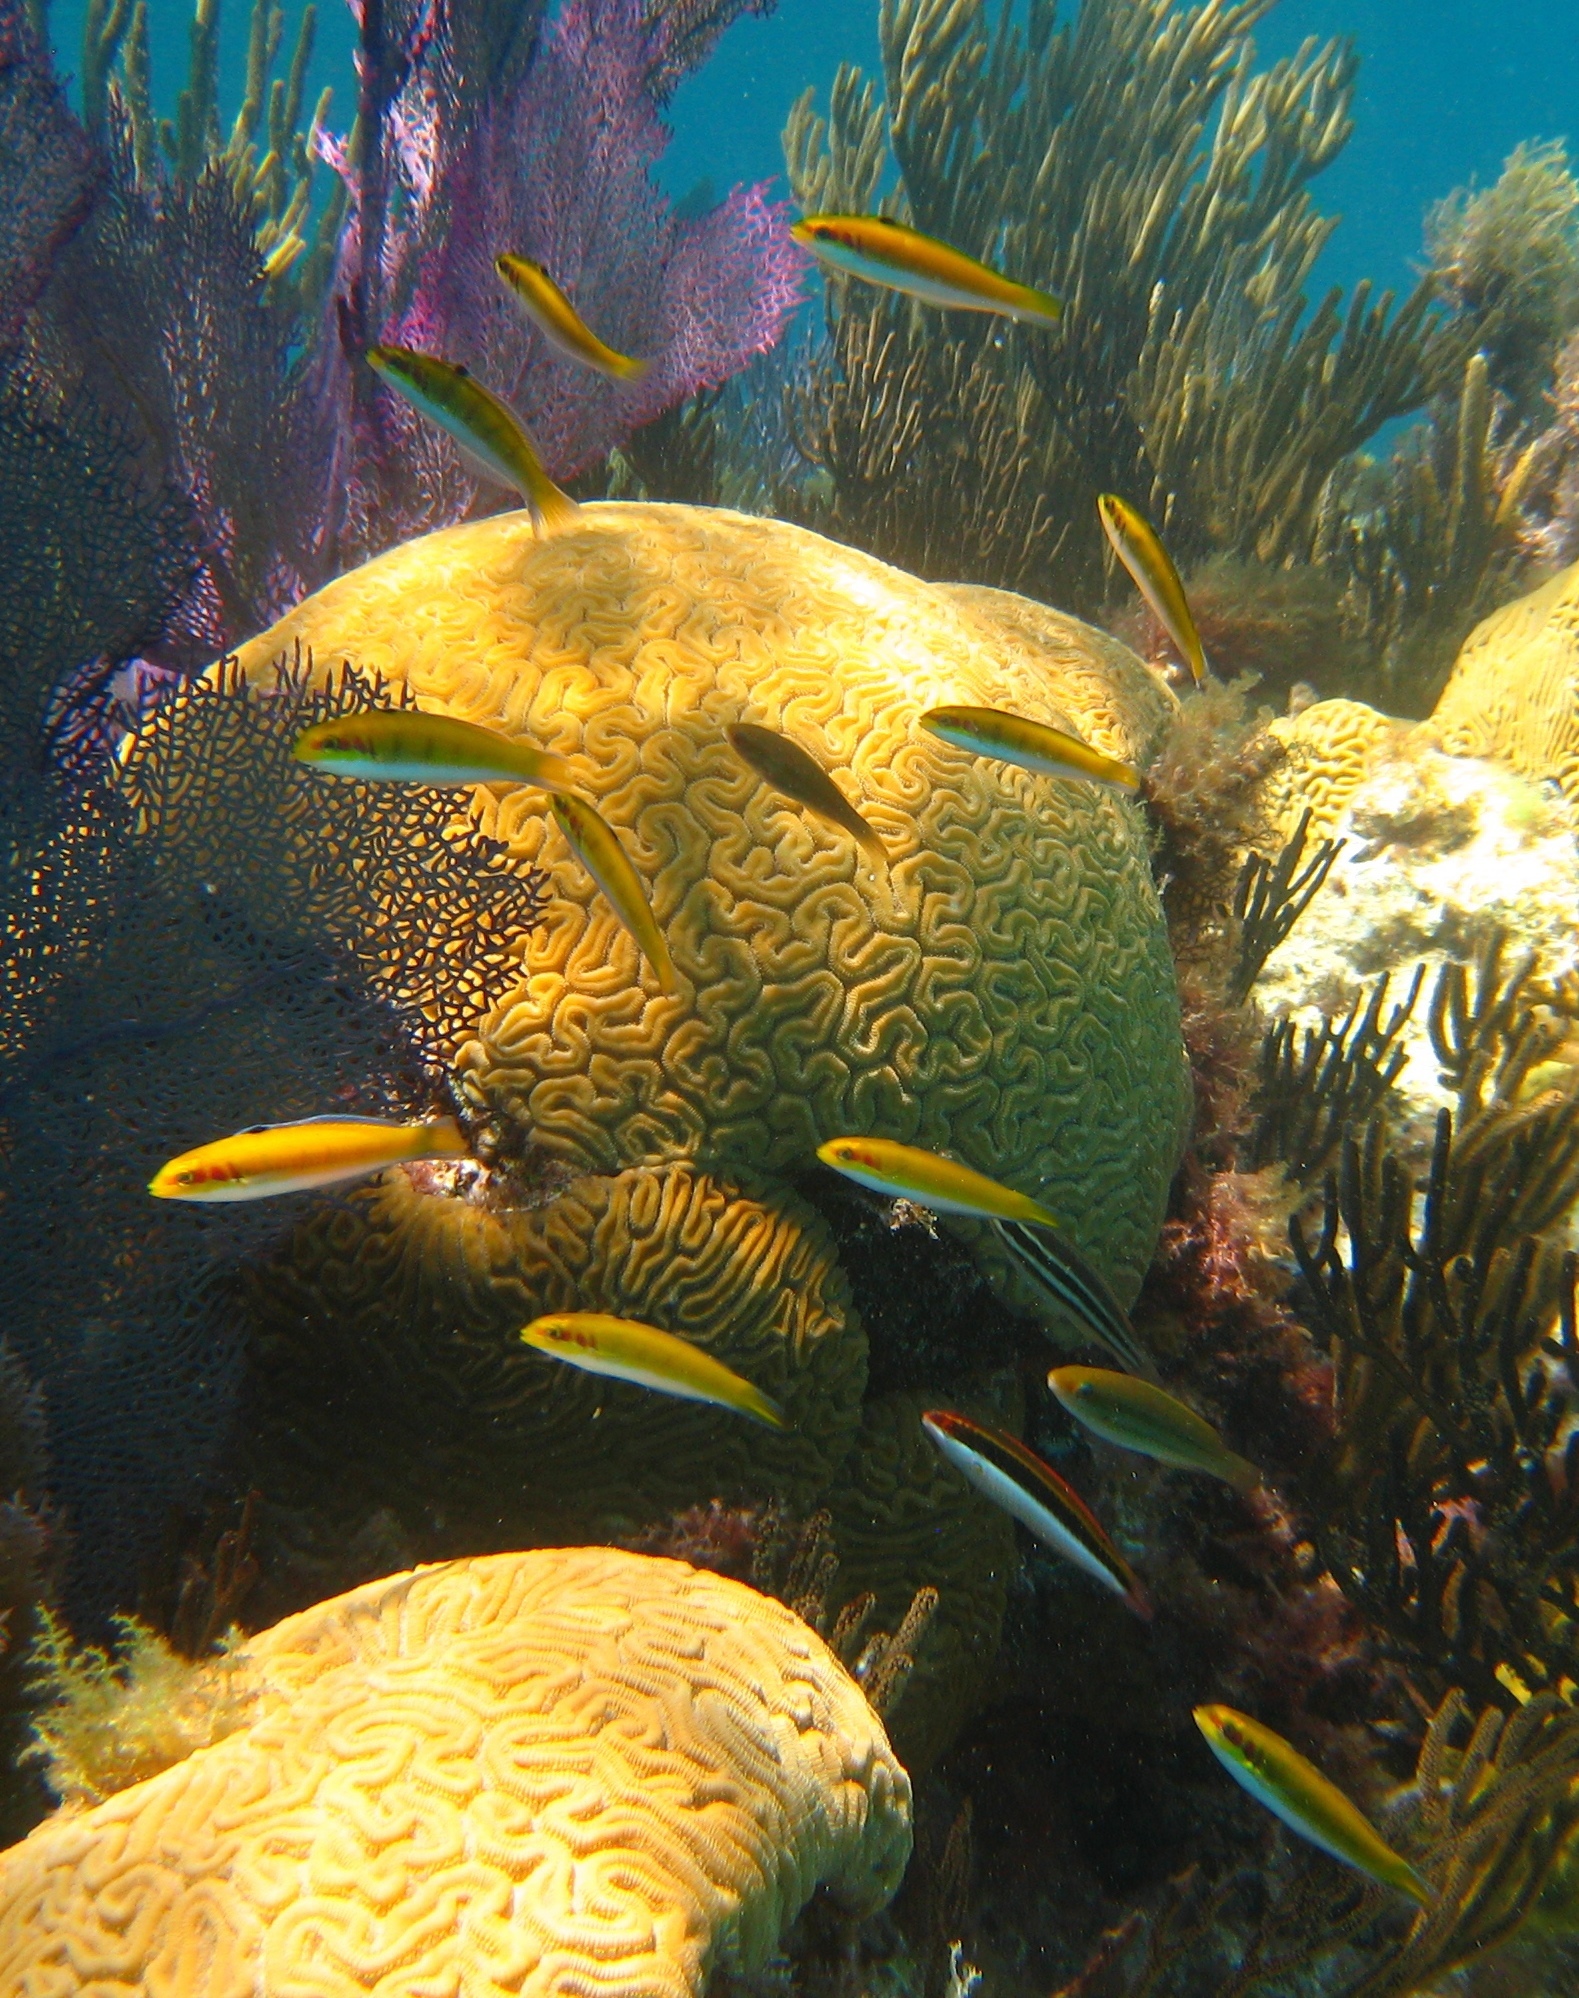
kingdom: Animalia
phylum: Chordata
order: Perciformes
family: Labridae
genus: Thalassoma
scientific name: Thalassoma bifasciatum
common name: Bluehead wrasse
